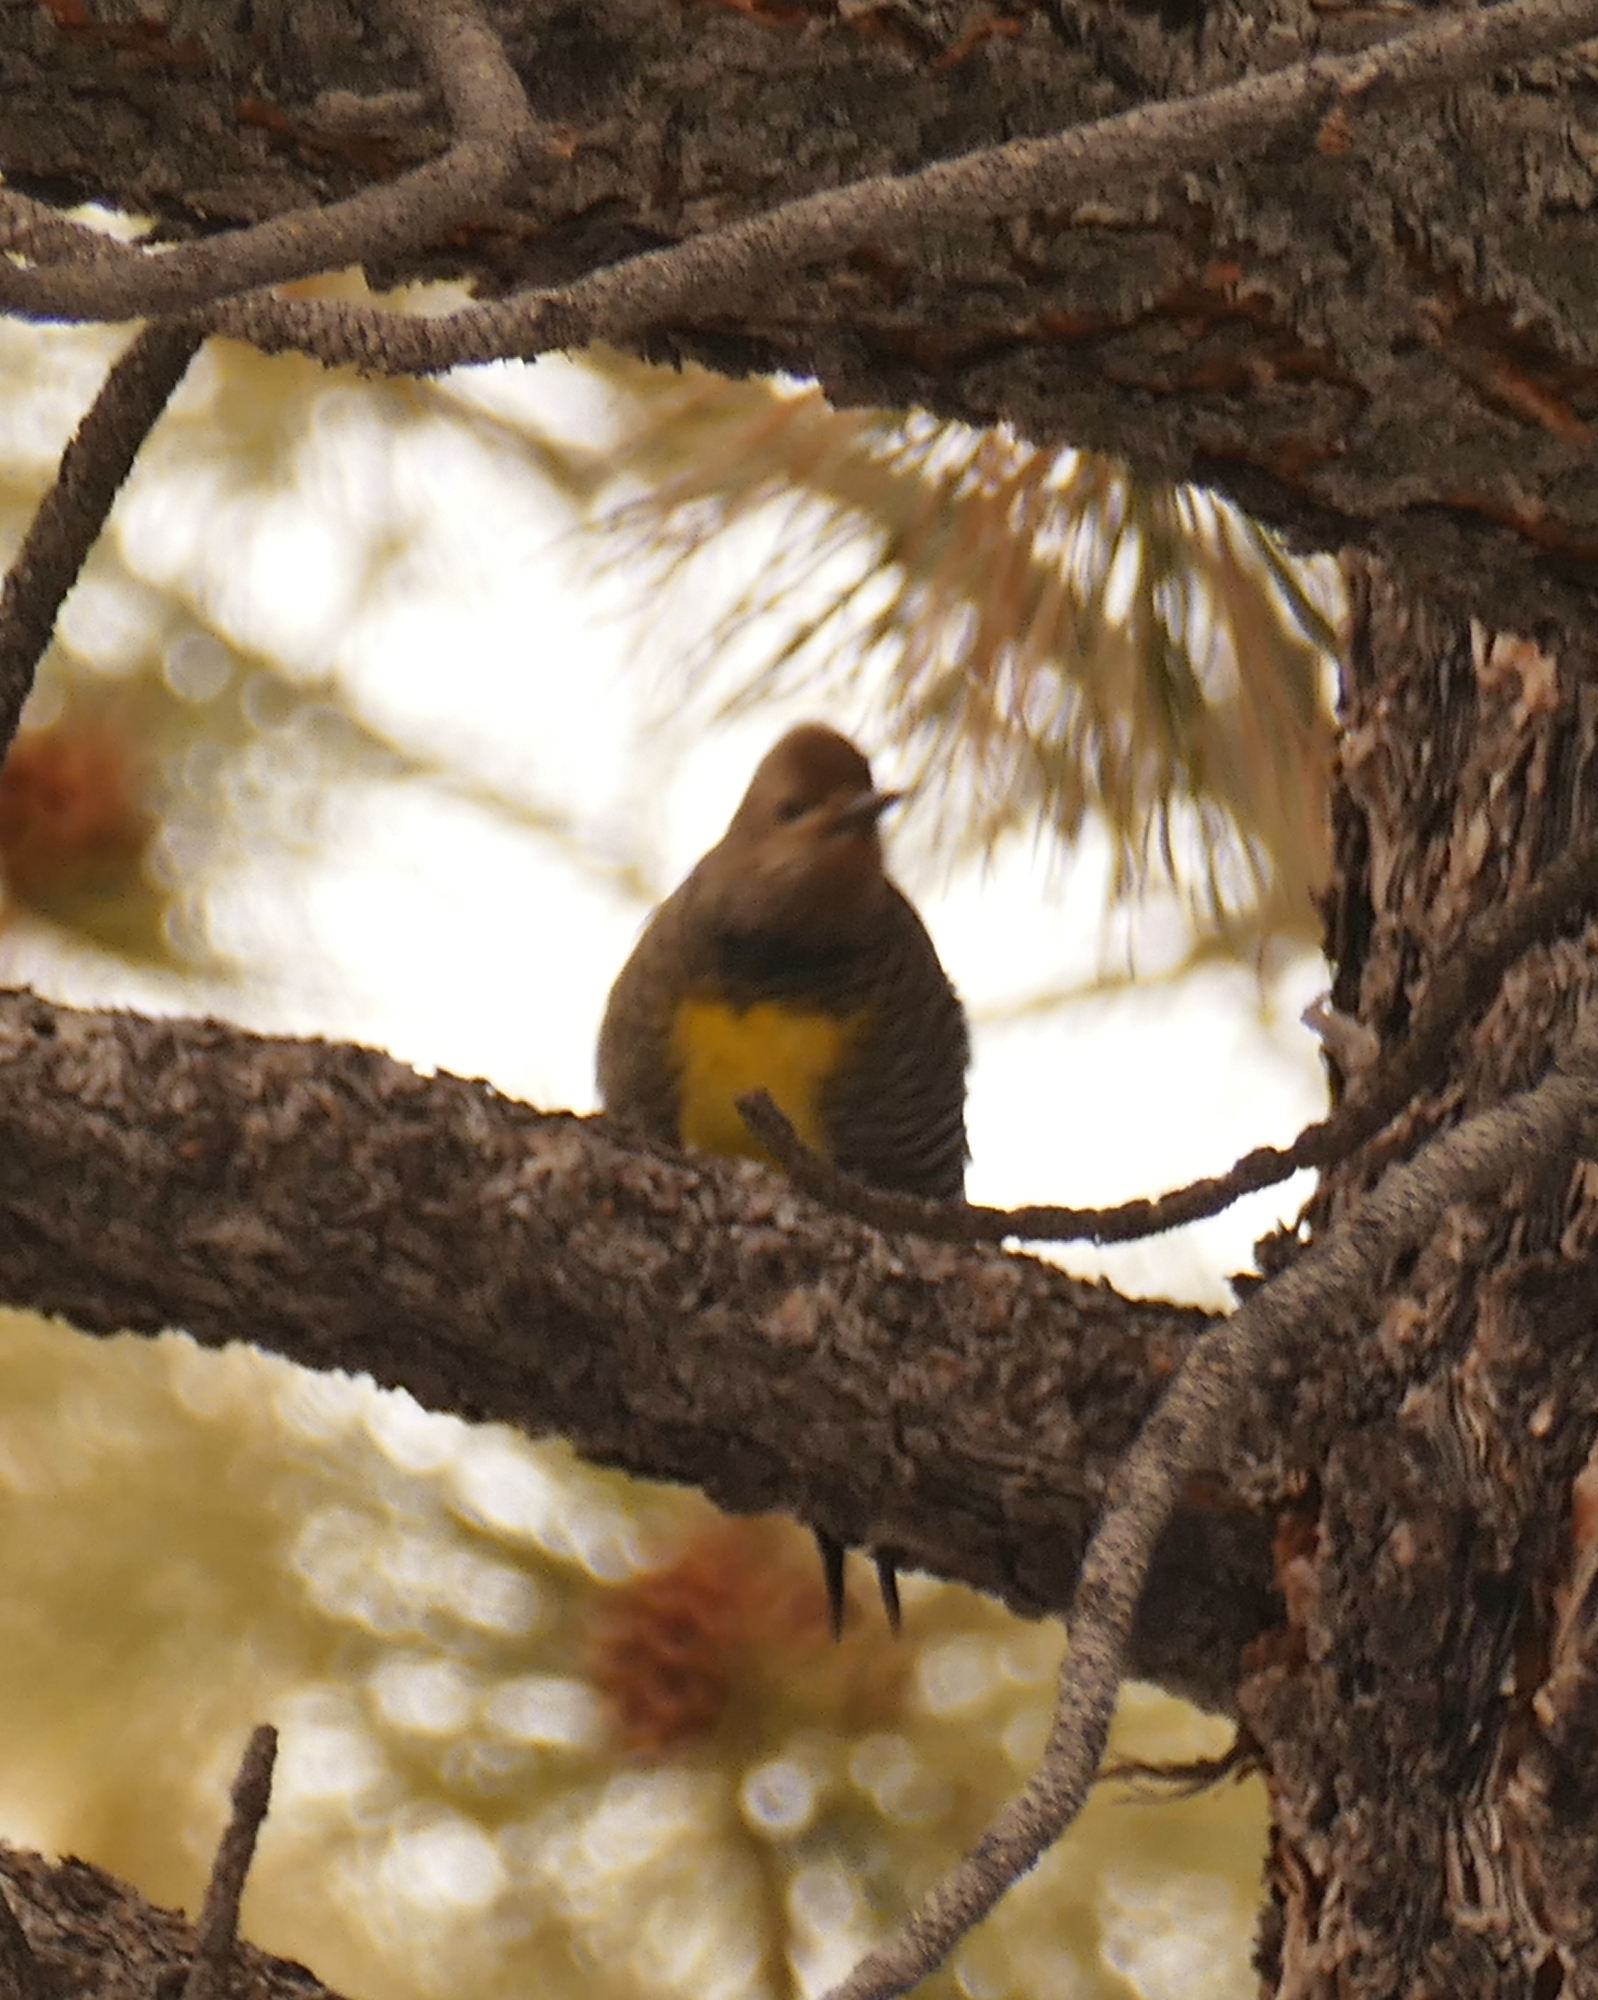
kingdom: Animalia
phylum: Chordata
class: Aves
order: Piciformes
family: Picidae
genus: Sphyrapicus
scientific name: Sphyrapicus thyroideus
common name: Williamson's sapsucker
